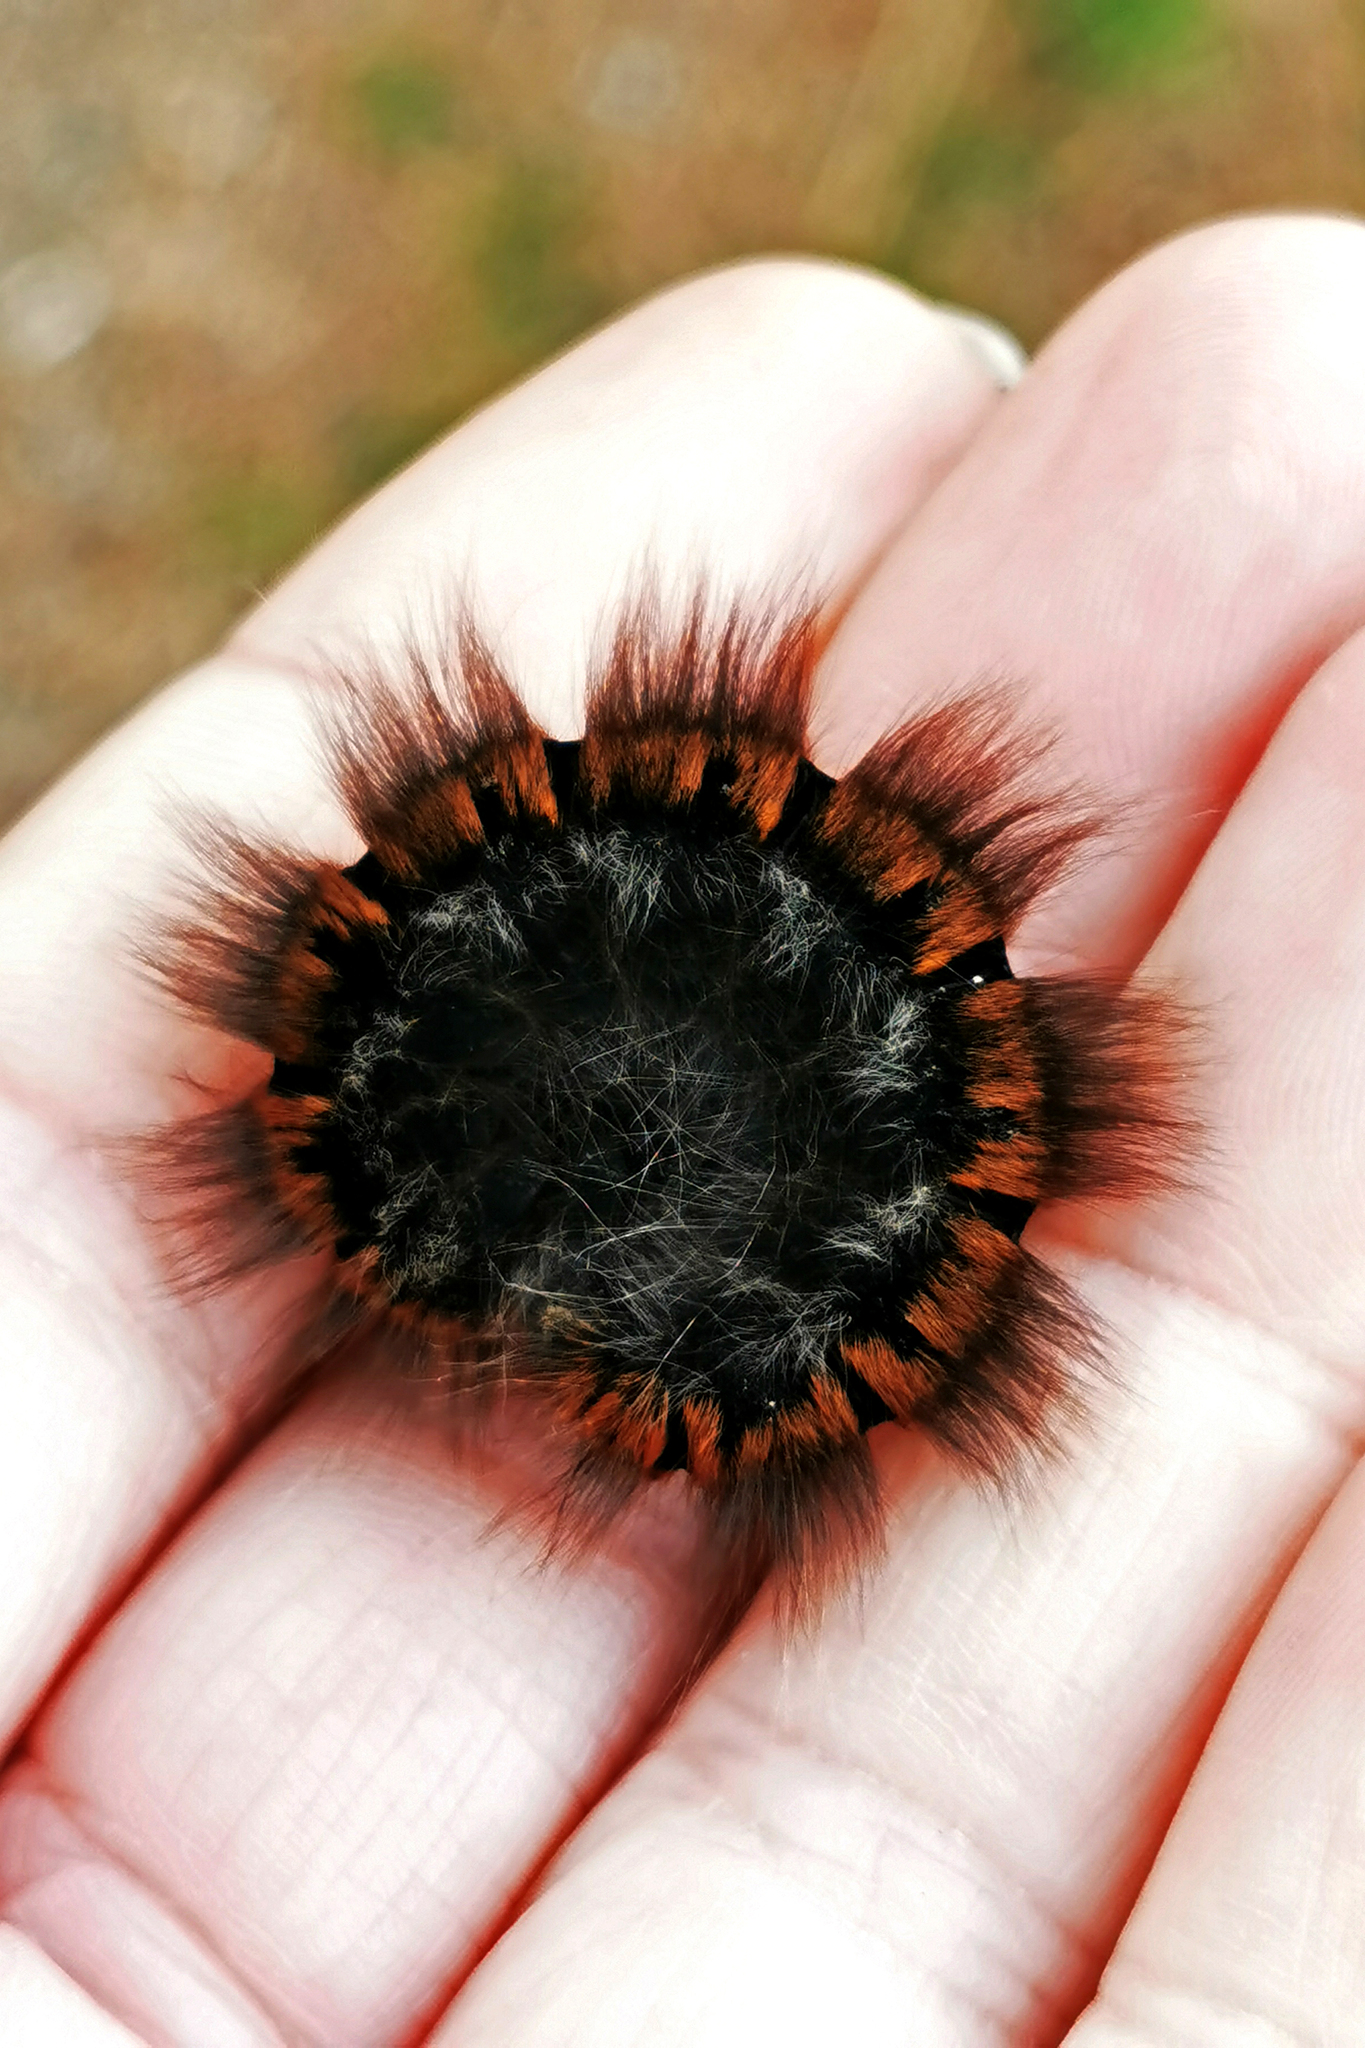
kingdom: Animalia
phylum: Arthropoda
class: Insecta
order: Lepidoptera
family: Lasiocampidae
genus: Macrothylacia
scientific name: Macrothylacia rubi
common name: Fox moth
